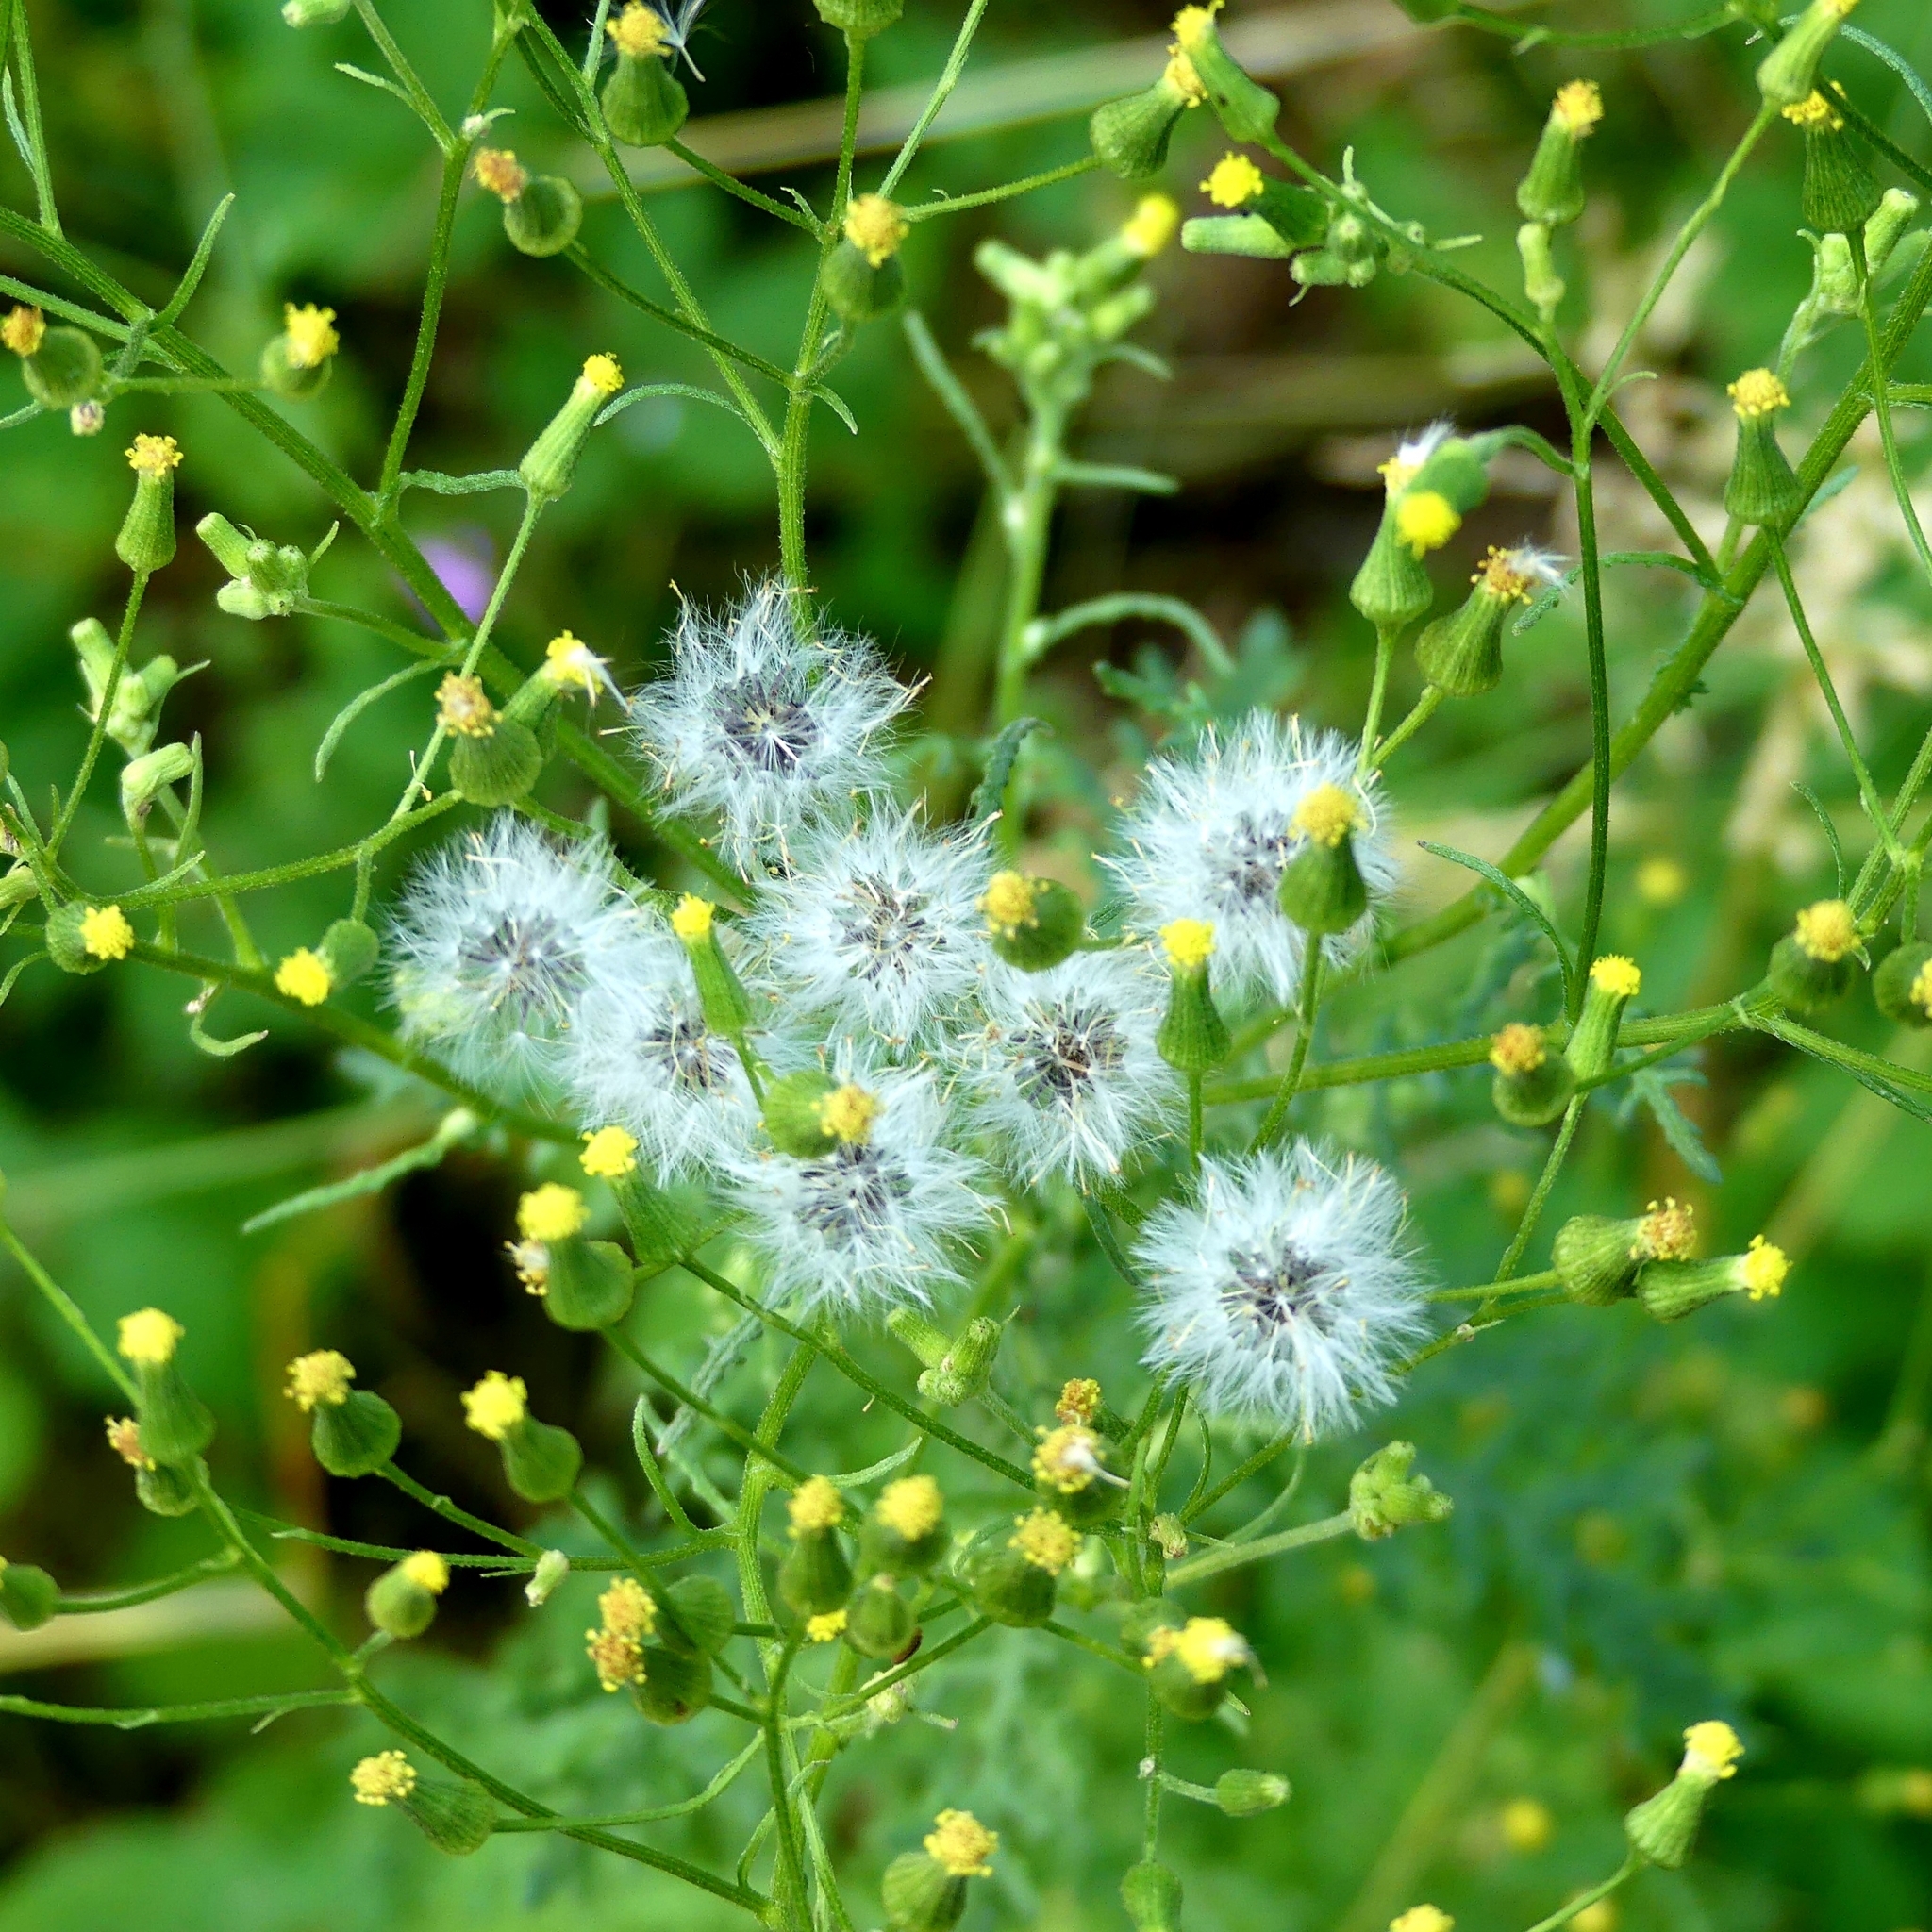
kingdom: Plantae
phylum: Tracheophyta
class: Magnoliopsida
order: Asterales
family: Asteraceae
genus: Senecio
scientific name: Senecio sylvaticus
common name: Woodland ragwort
